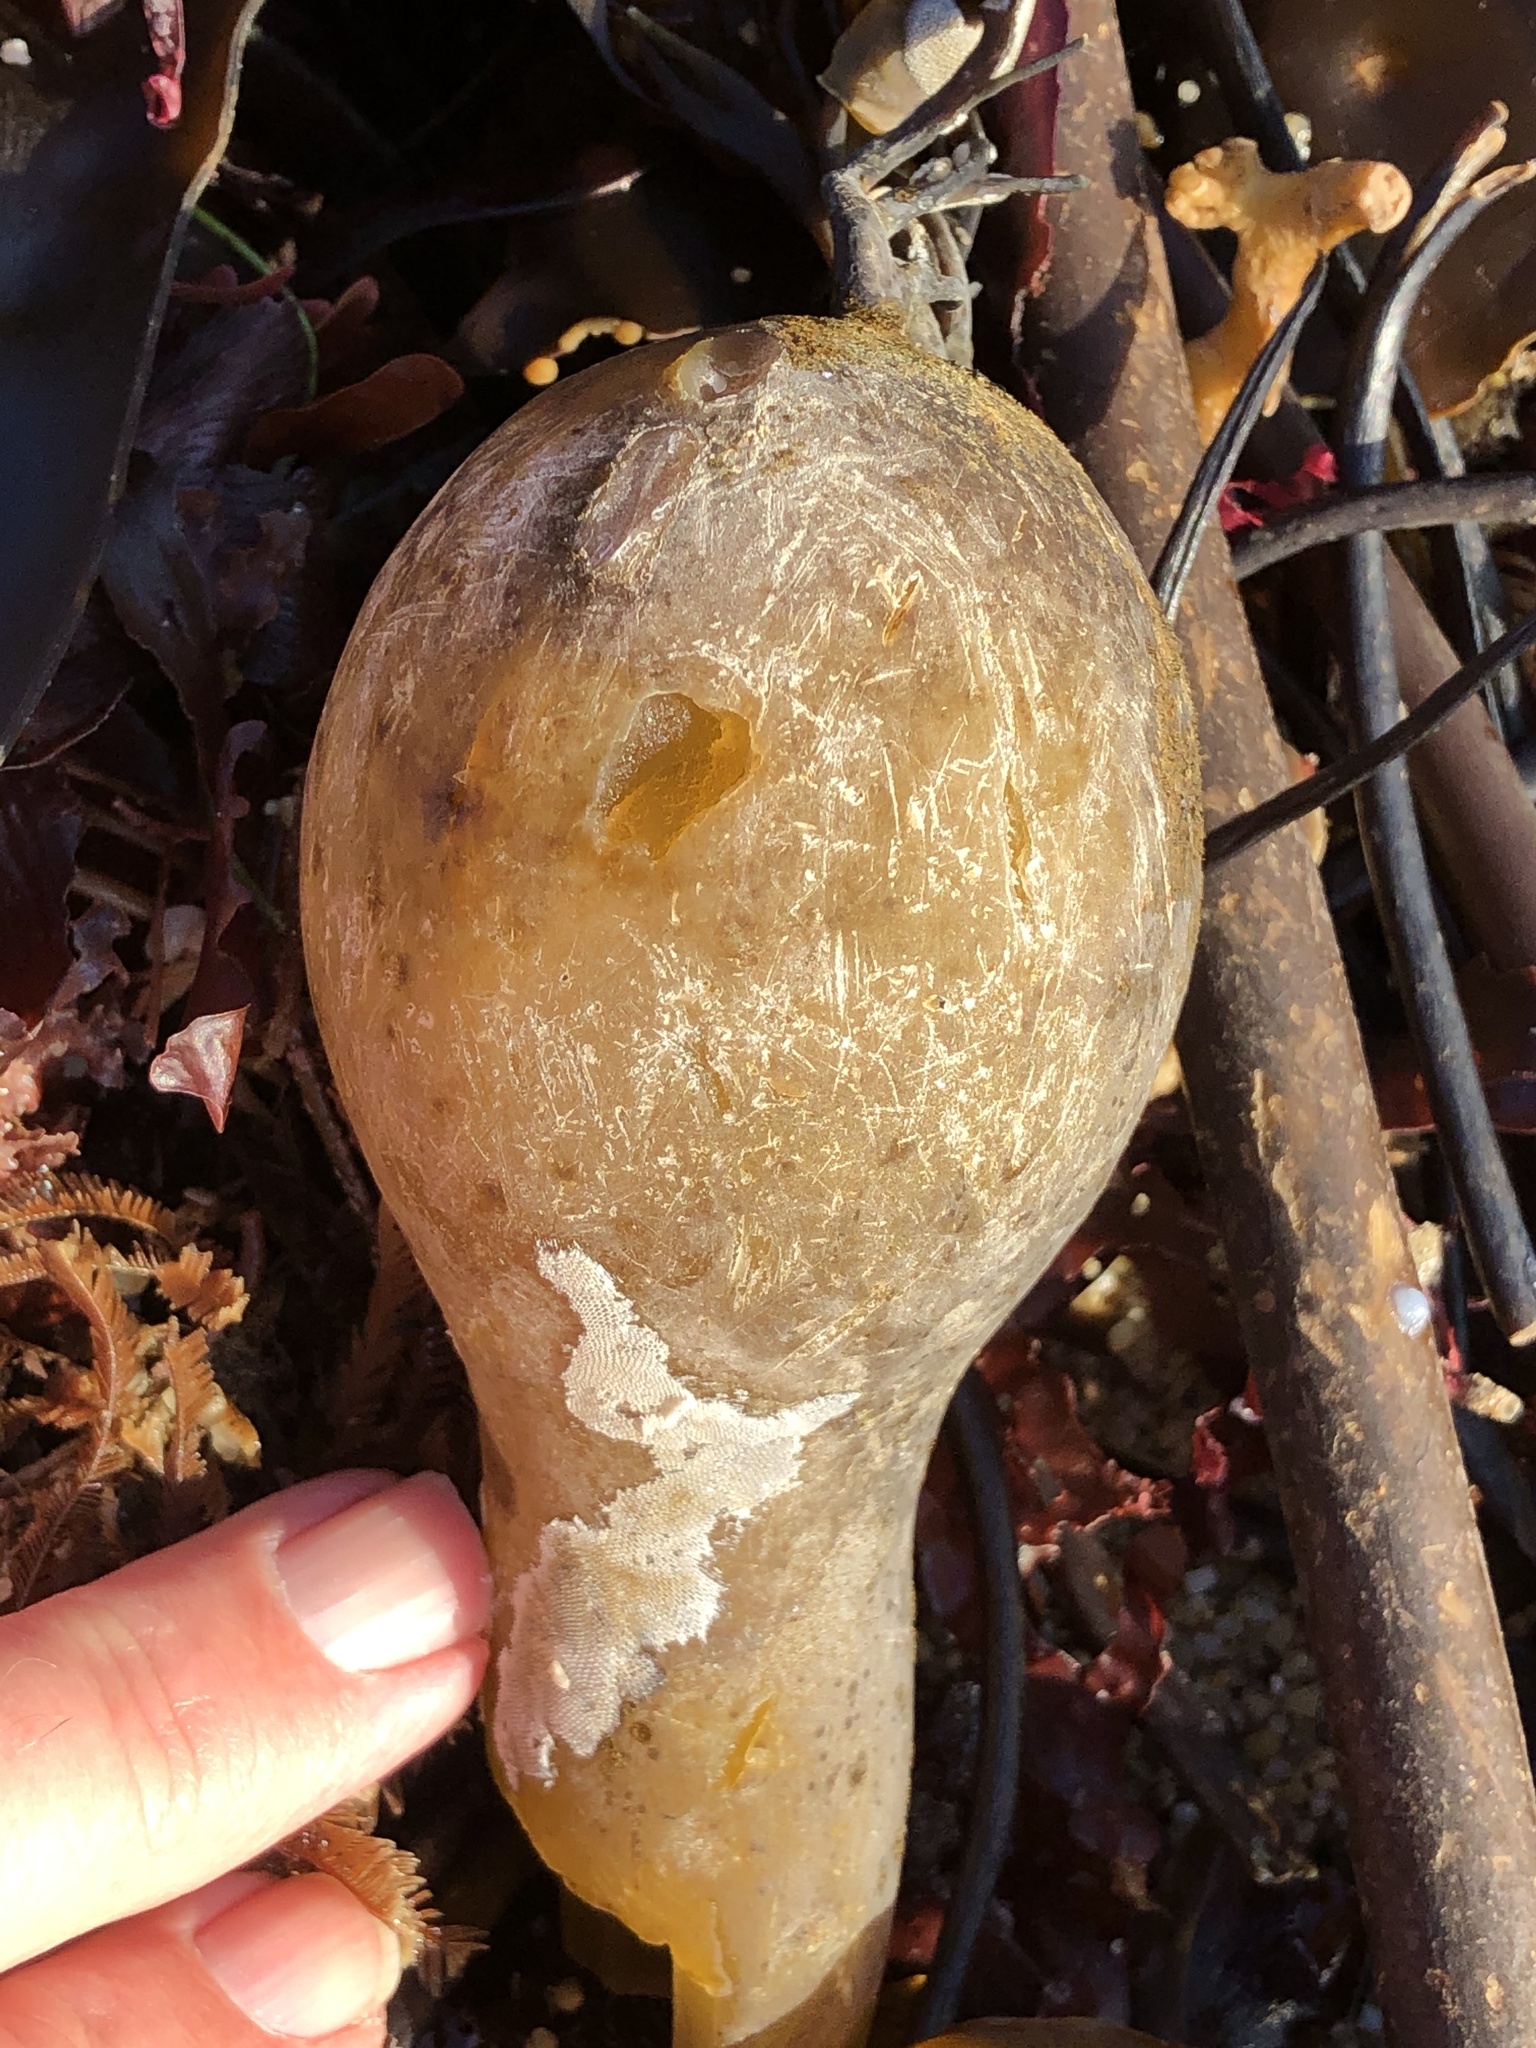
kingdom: Chromista
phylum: Ochrophyta
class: Phaeophyceae
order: Laminariales
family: Laminariaceae
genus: Nereocystis
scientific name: Nereocystis luetkeana
